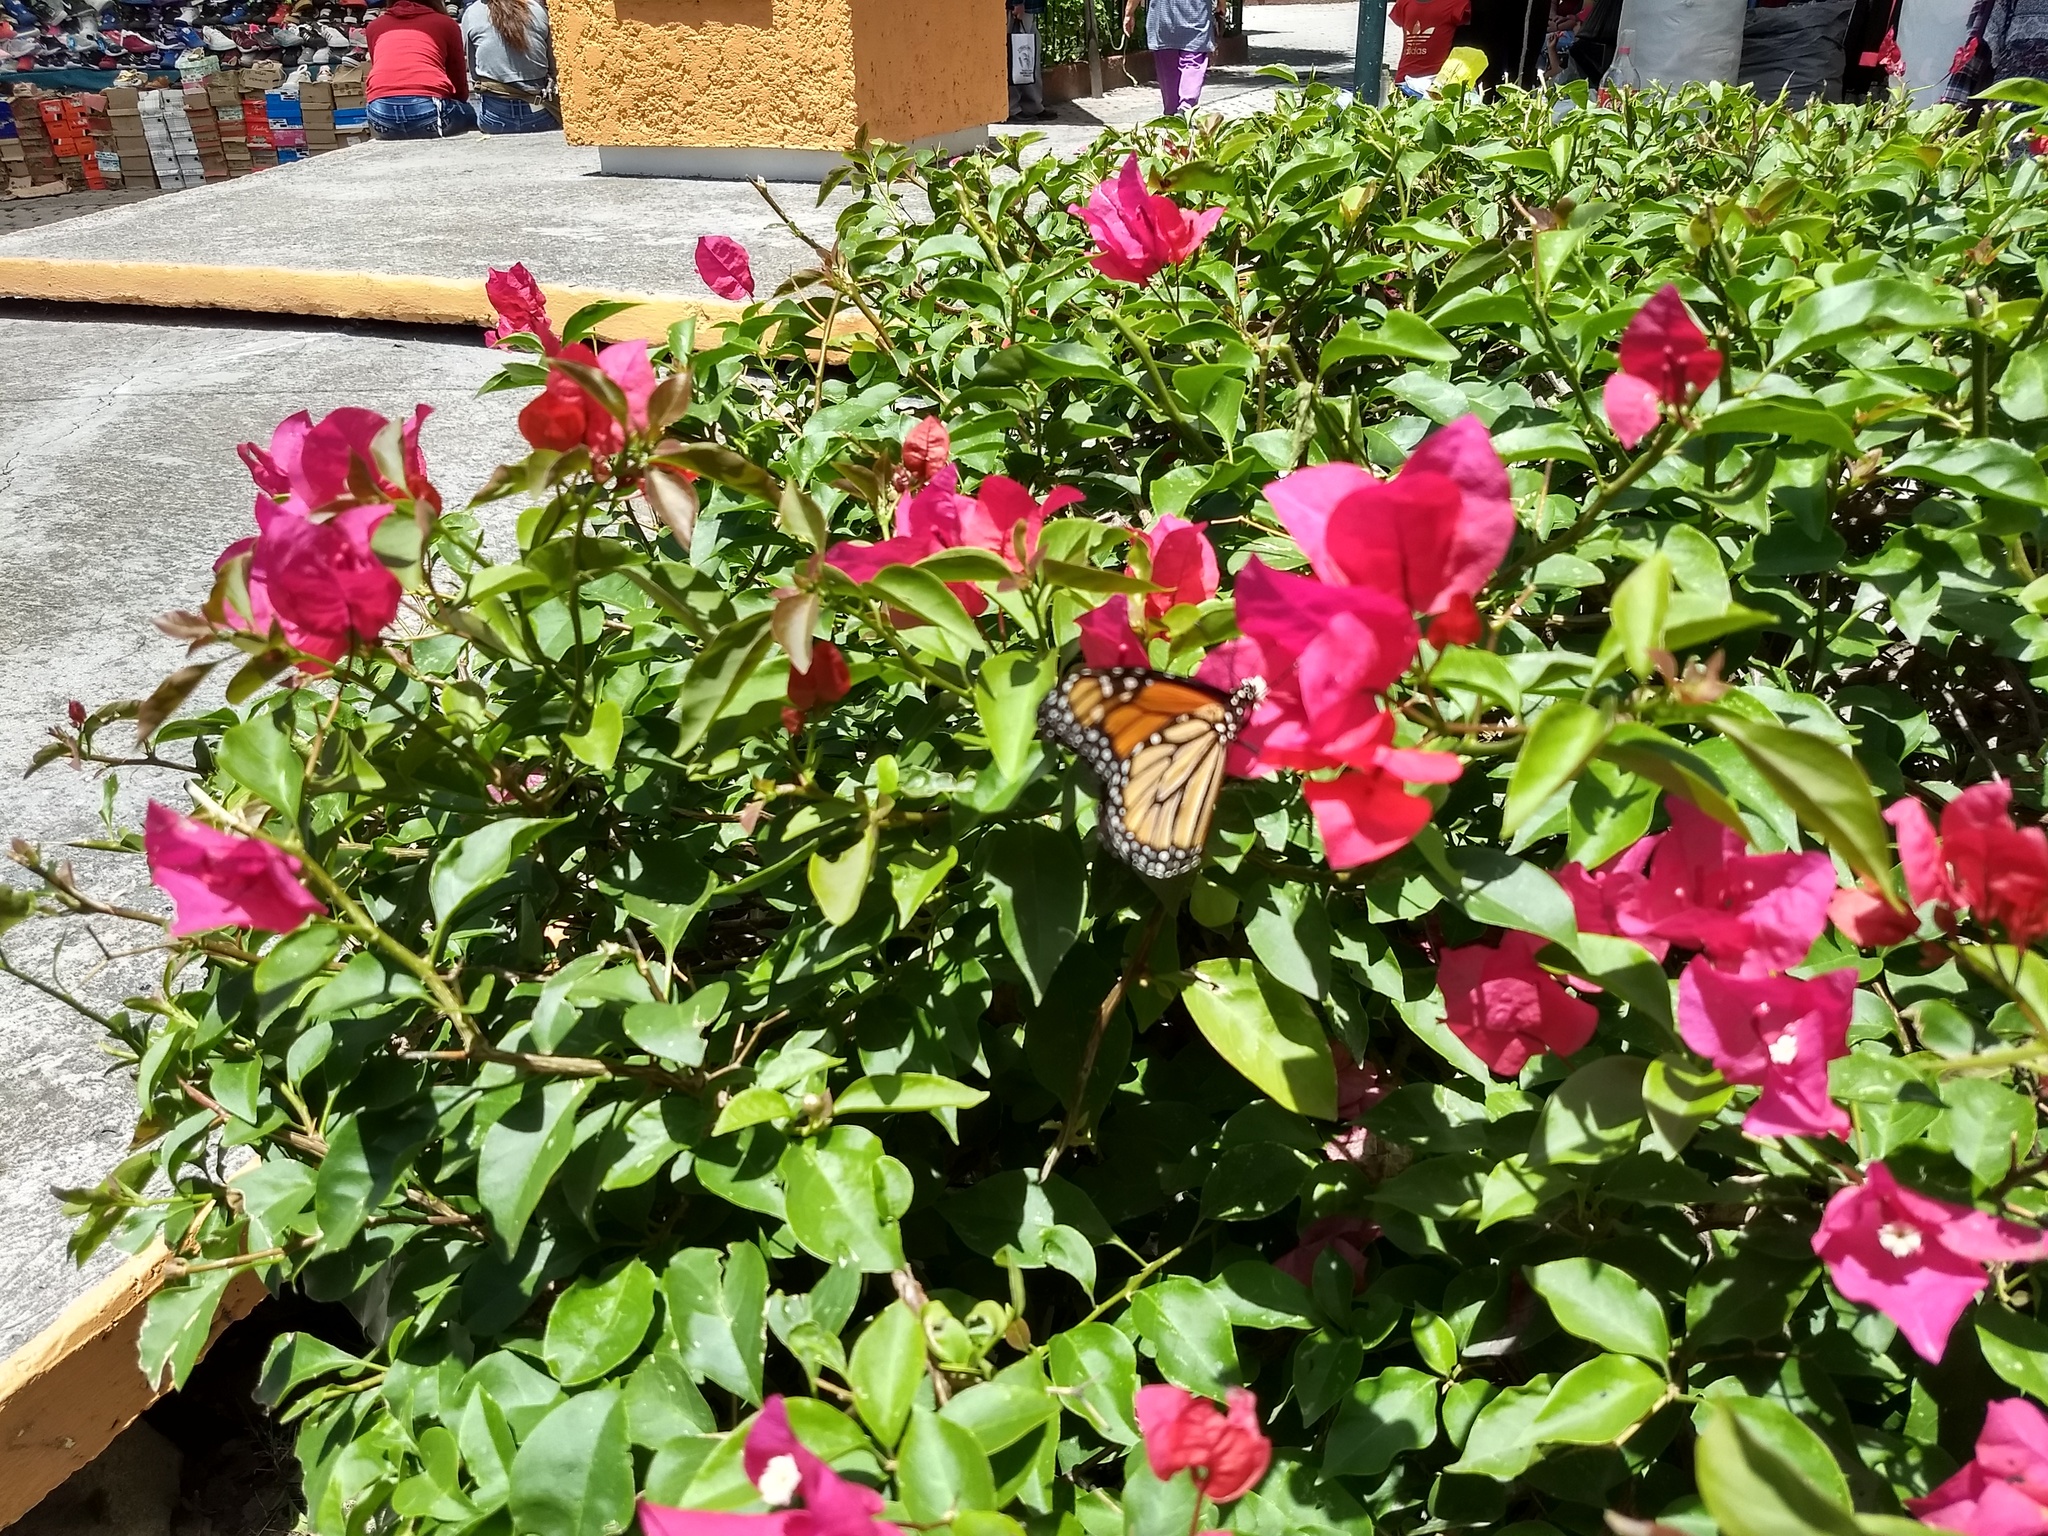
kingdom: Animalia
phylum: Arthropoda
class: Insecta
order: Lepidoptera
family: Nymphalidae
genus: Danaus
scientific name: Danaus plexippus
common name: Monarch
